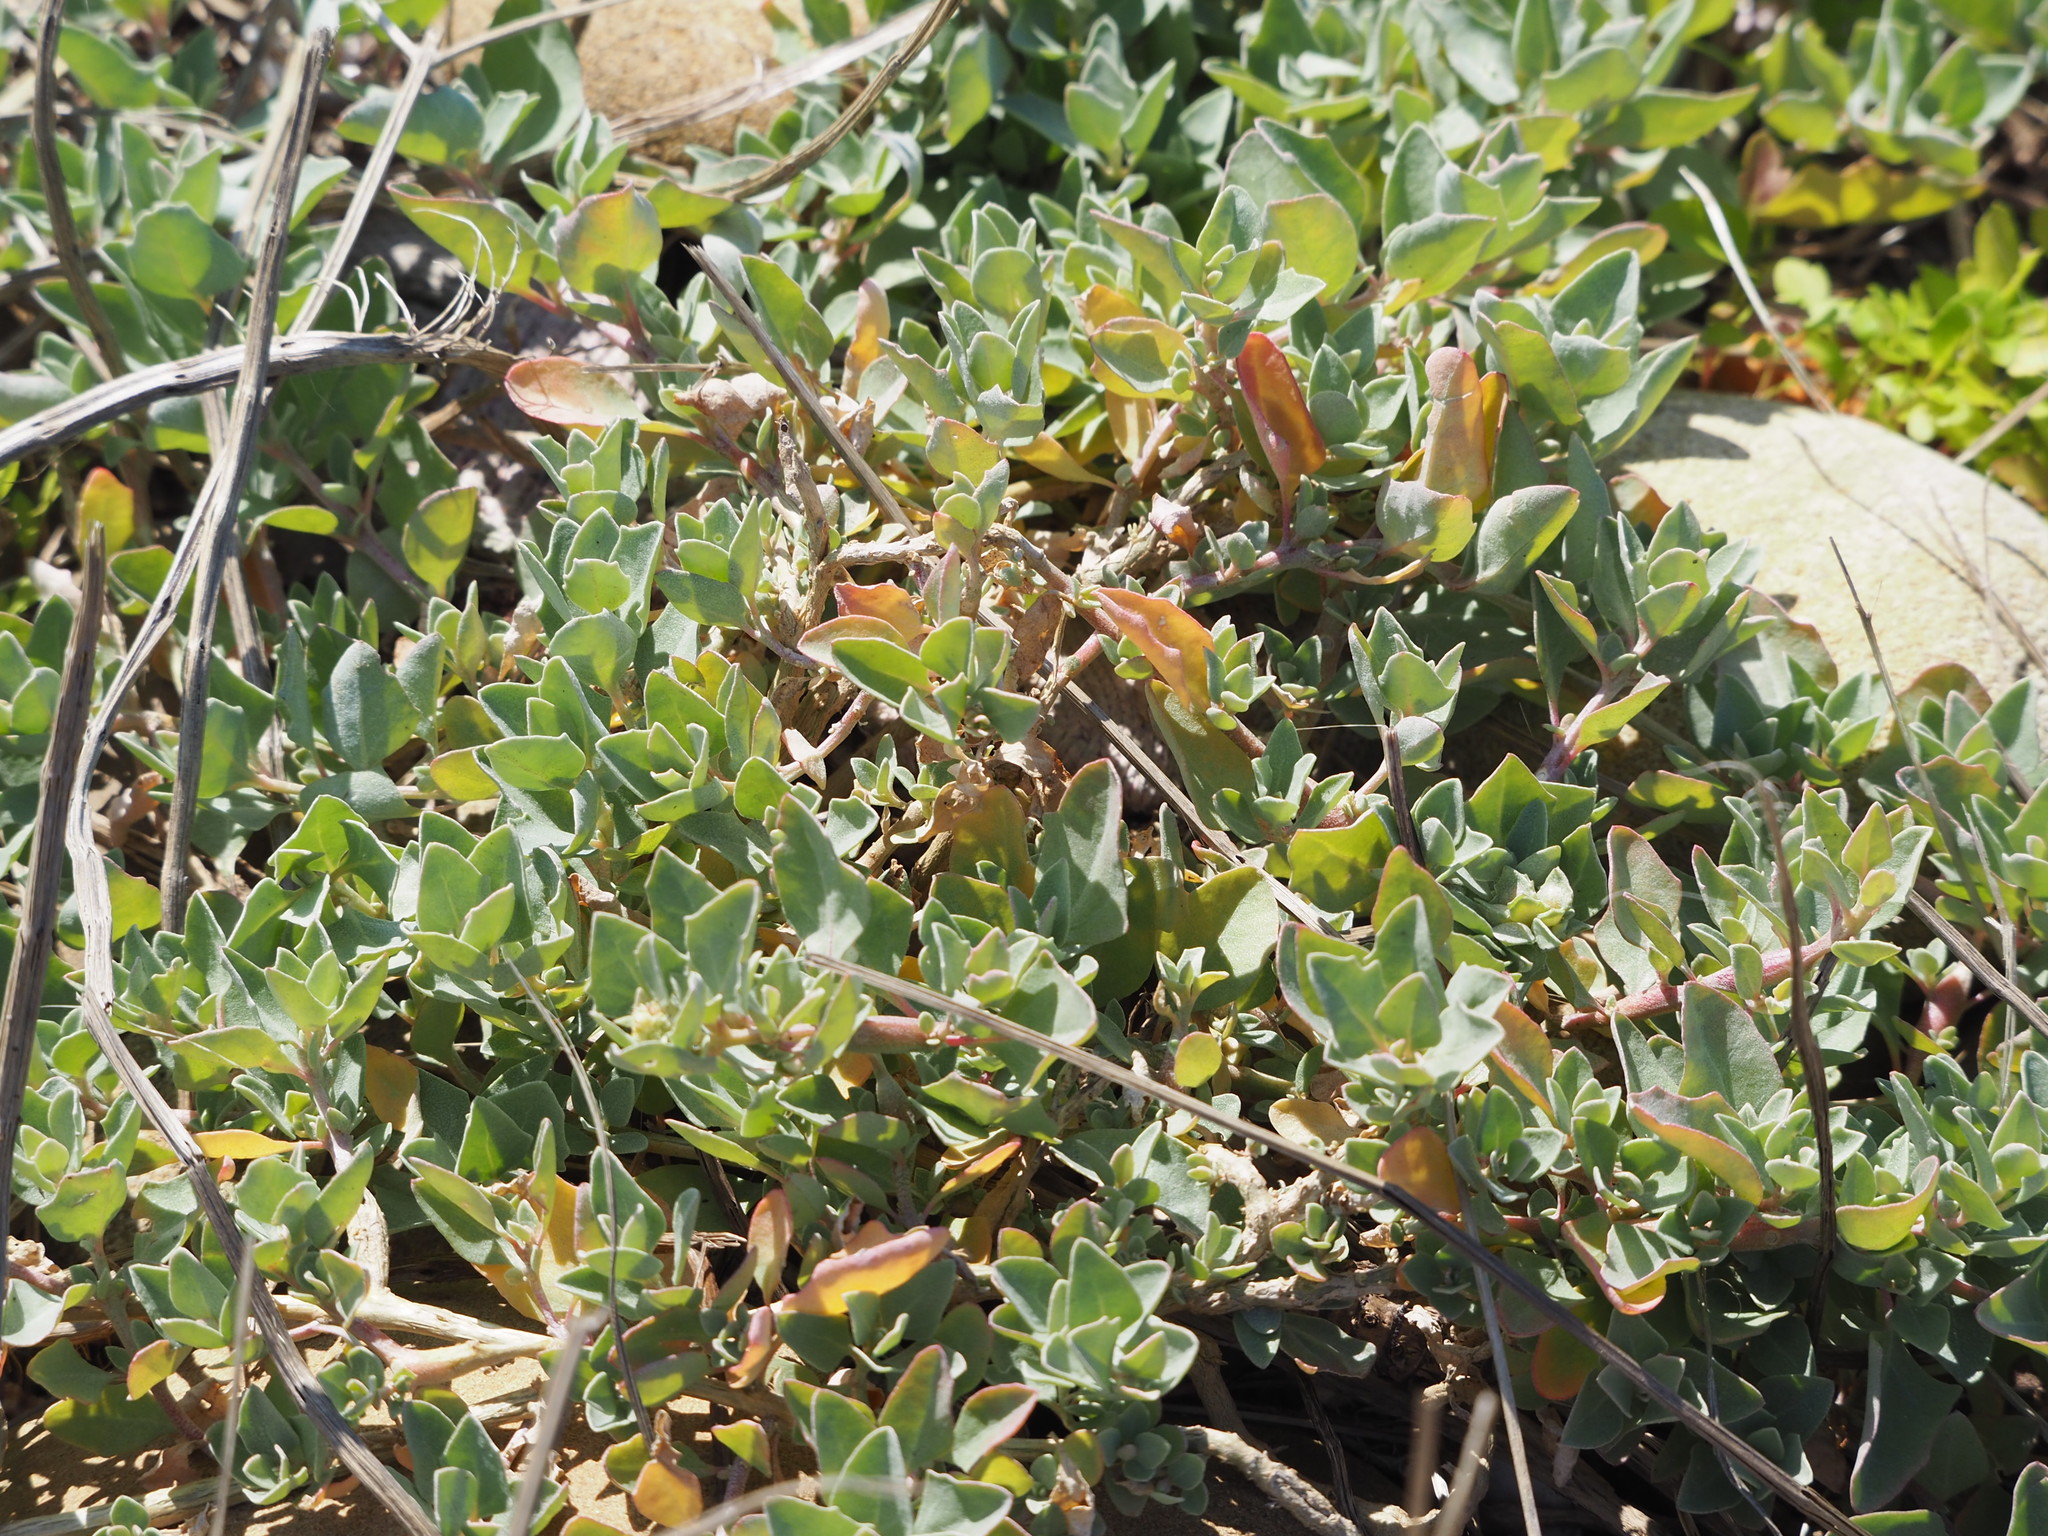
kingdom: Plantae
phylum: Tracheophyta
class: Magnoliopsida
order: Caryophyllales
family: Amaranthaceae
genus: Atriplex
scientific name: Atriplex maximowicziana
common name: Maximowicz's saltbush
